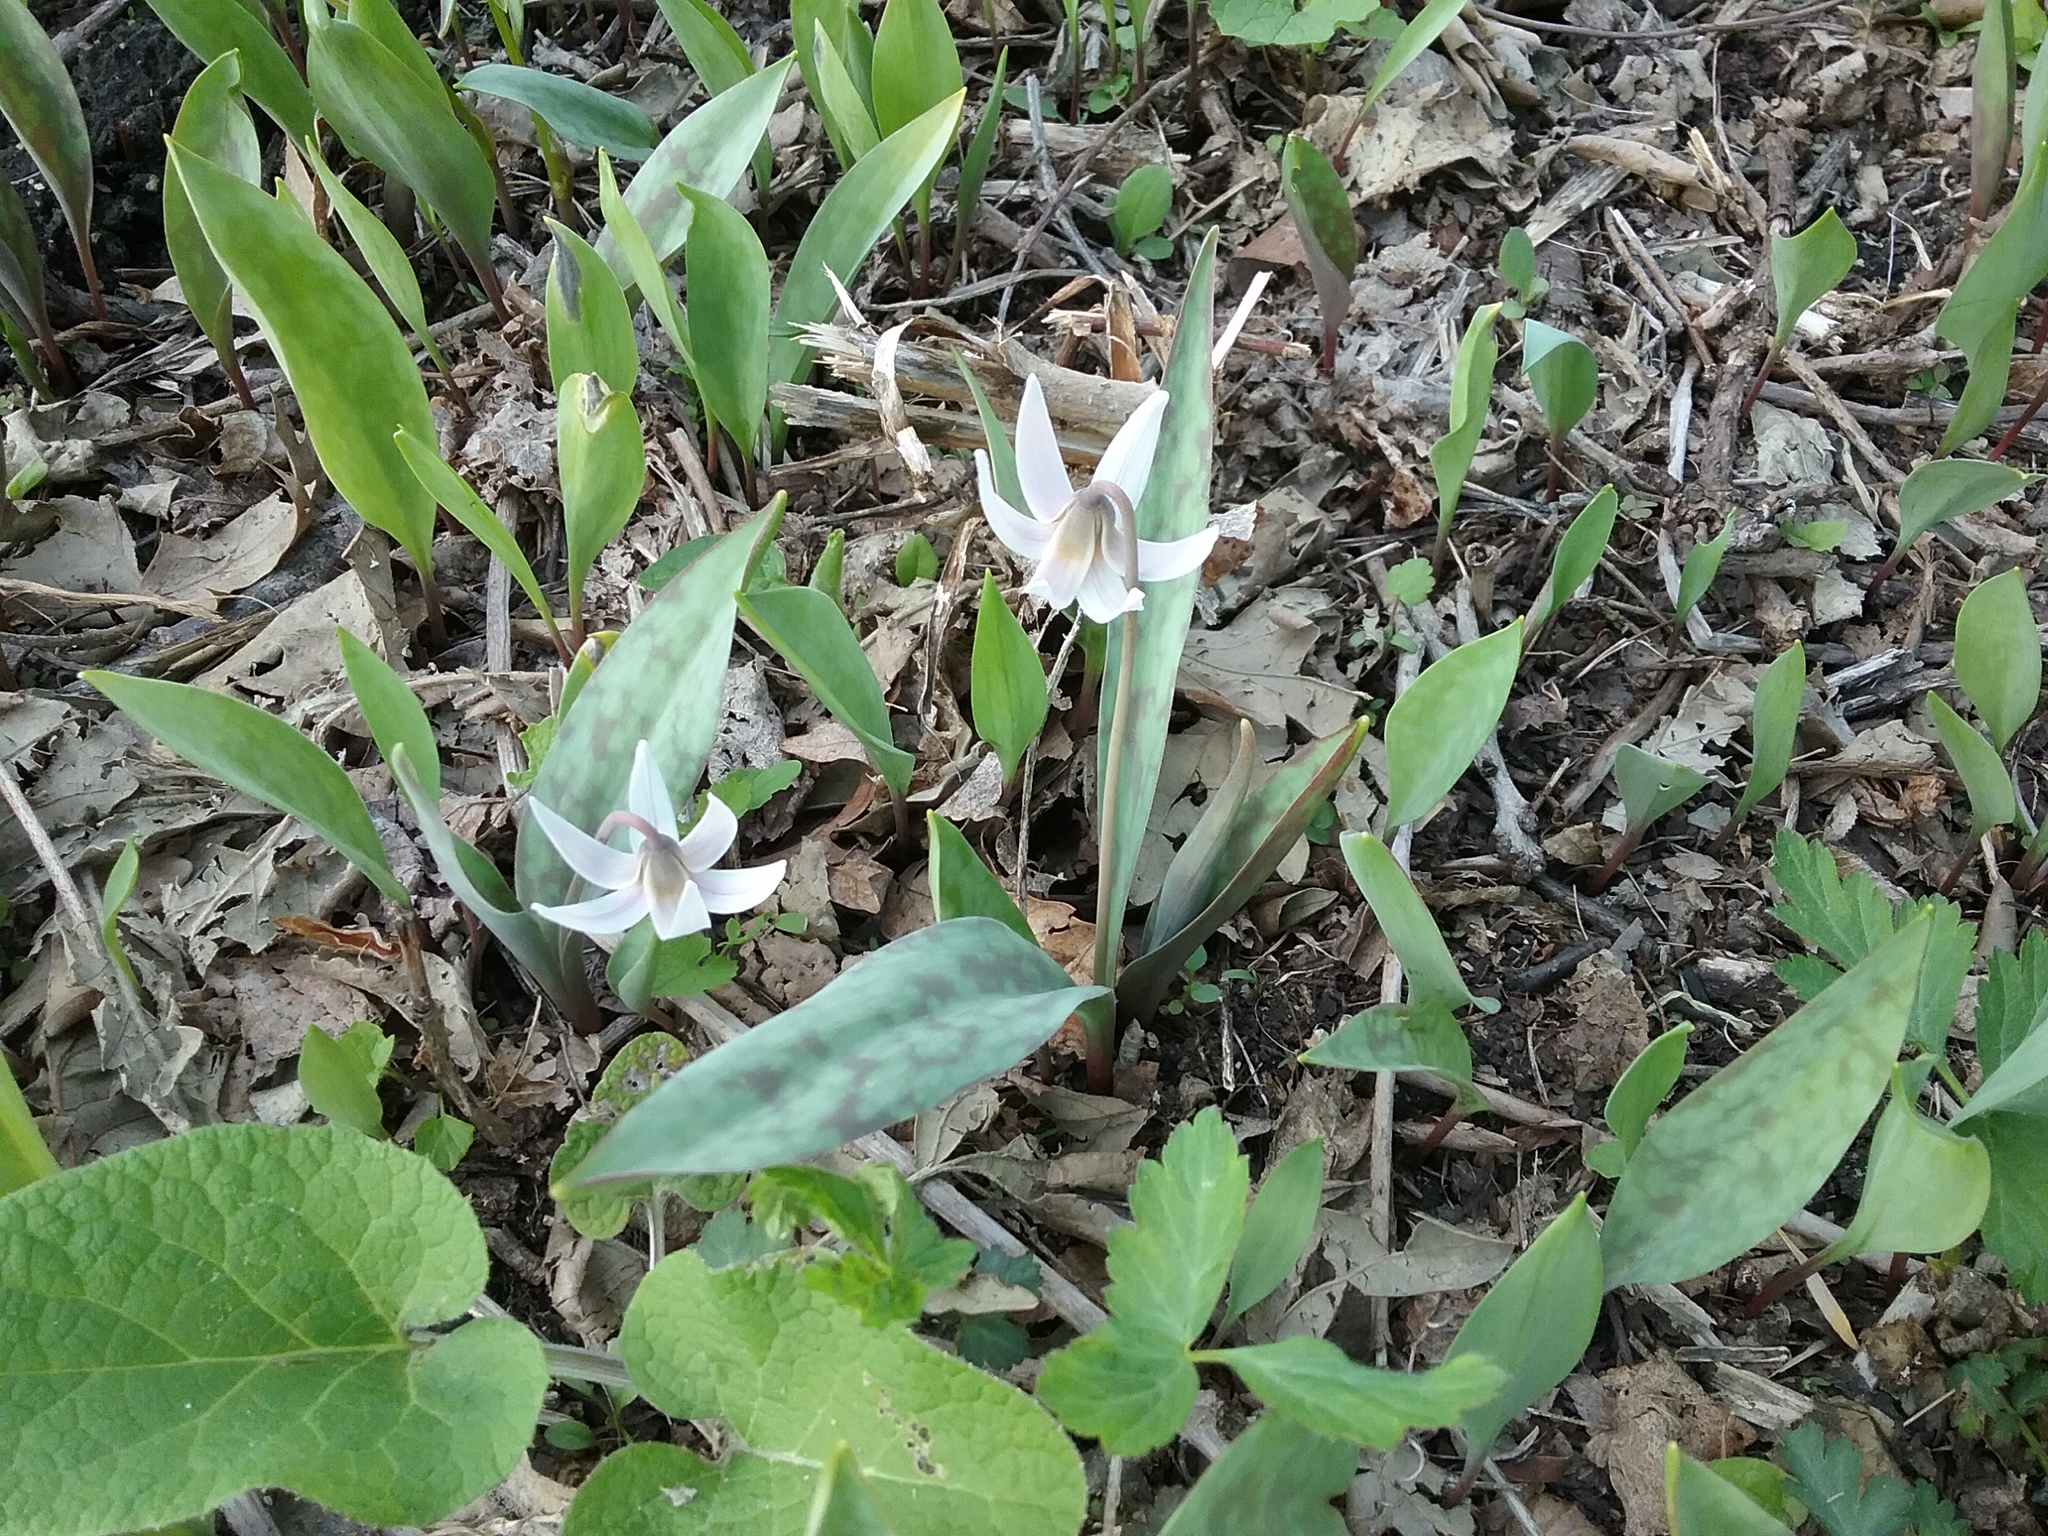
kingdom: Plantae
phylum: Tracheophyta
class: Liliopsida
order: Liliales
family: Liliaceae
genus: Erythronium
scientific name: Erythronium albidum
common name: White trout-lily
